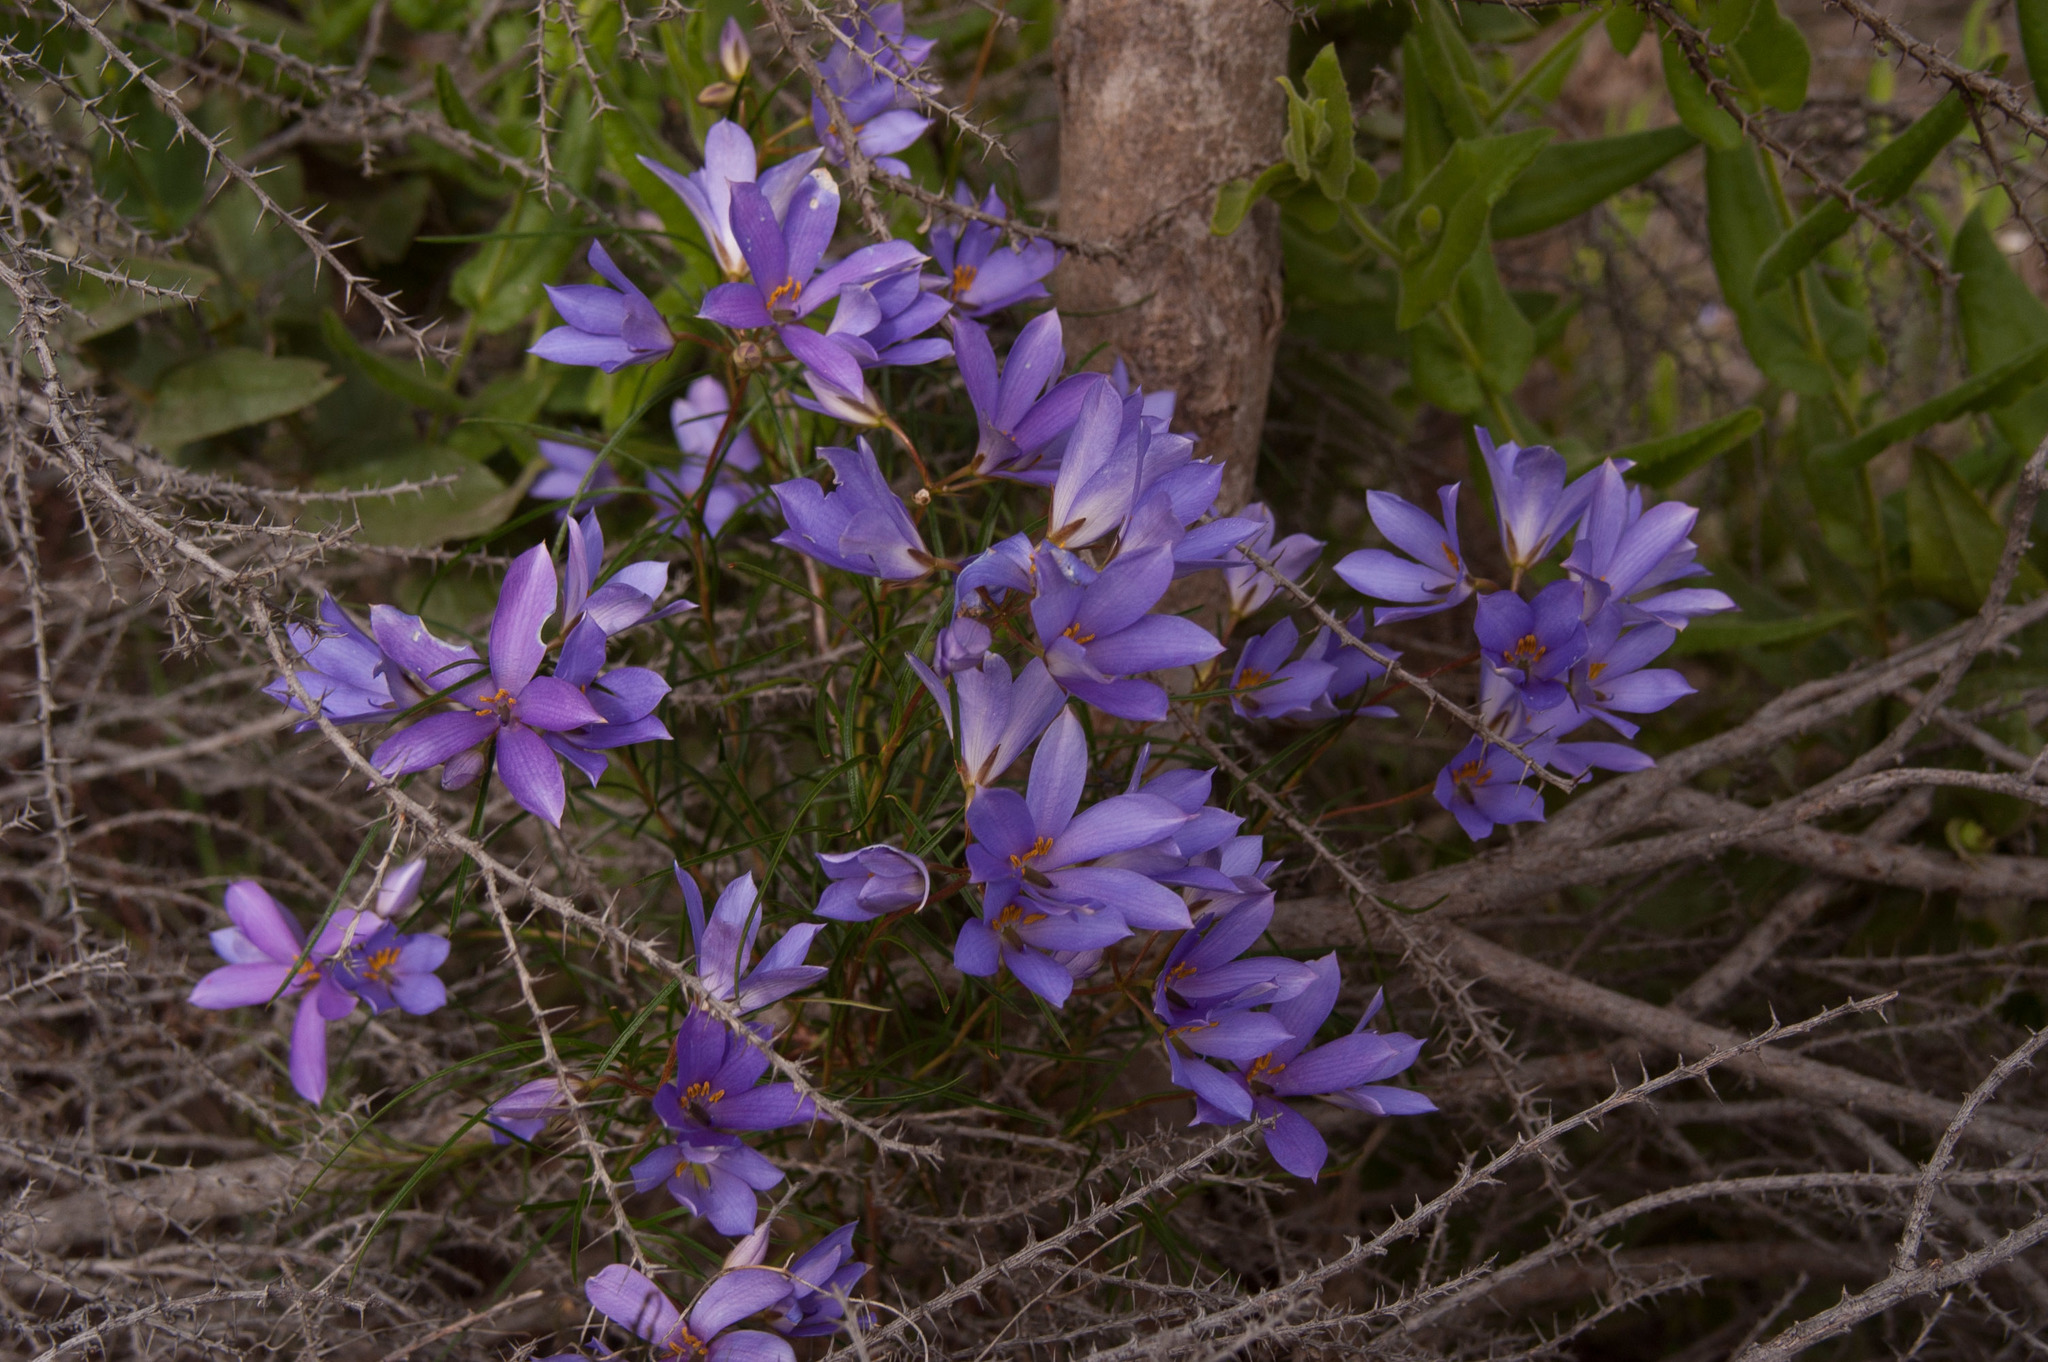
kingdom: Plantae
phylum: Tracheophyta
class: Magnoliopsida
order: Apiales
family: Pittosporaceae
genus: Cheiranthera
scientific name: Cheiranthera alternifolia
